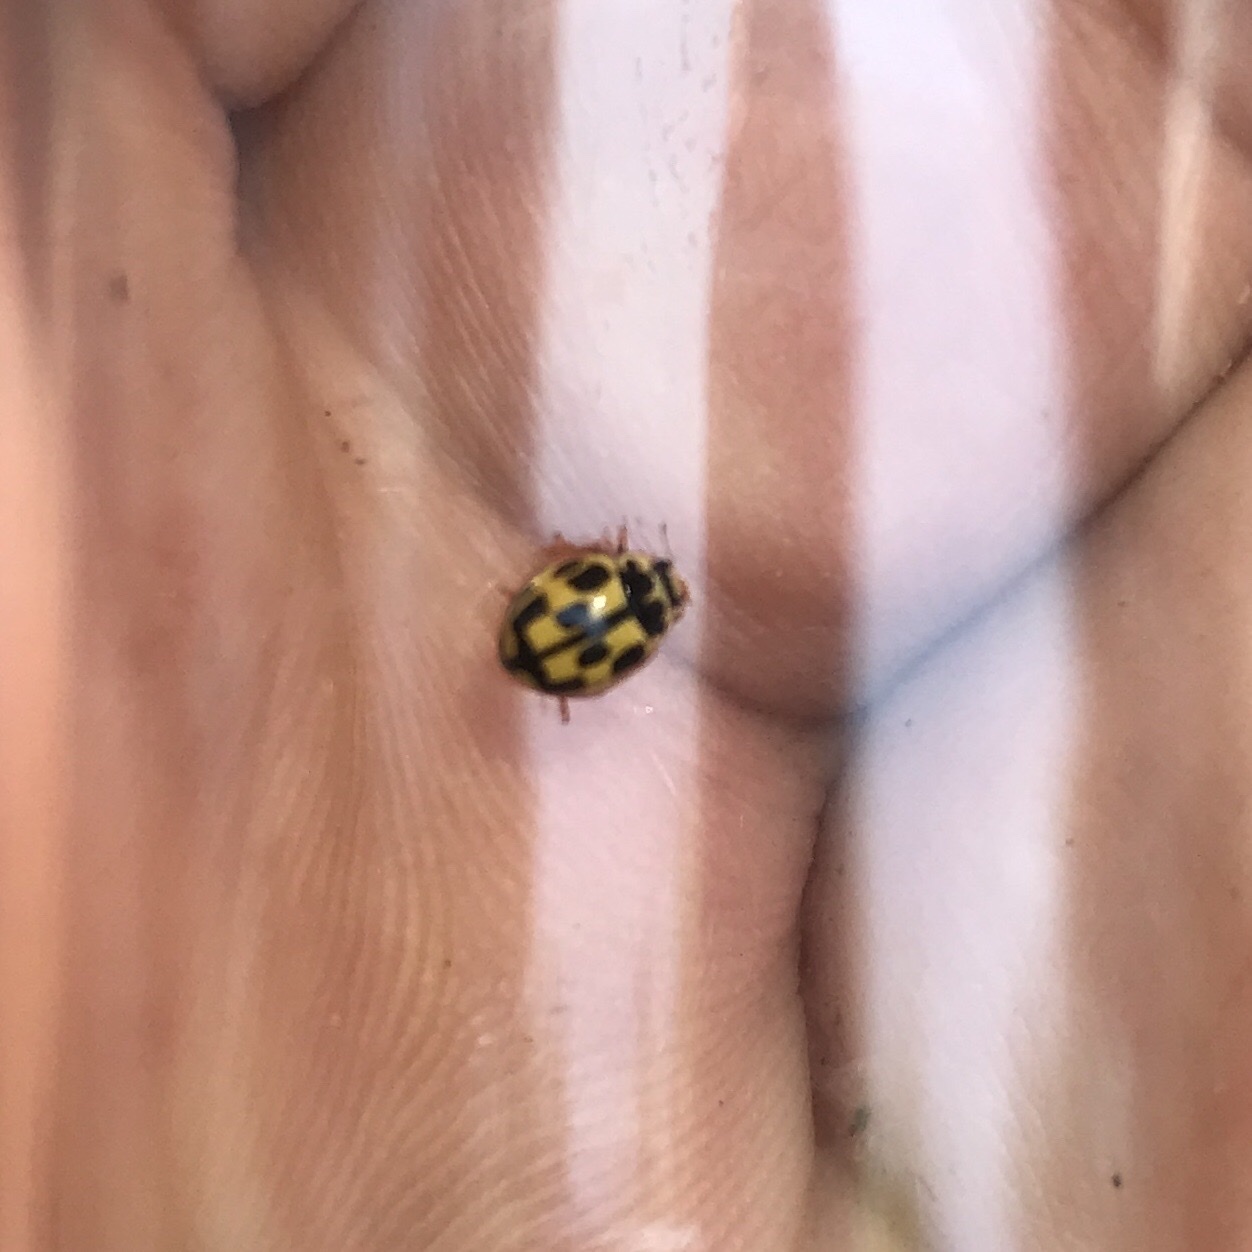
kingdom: Animalia
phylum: Arthropoda
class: Insecta
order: Coleoptera
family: Coccinellidae
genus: Propylaea
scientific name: Propylaea quatuordecimpunctata
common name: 14-spotted ladybird beetle
